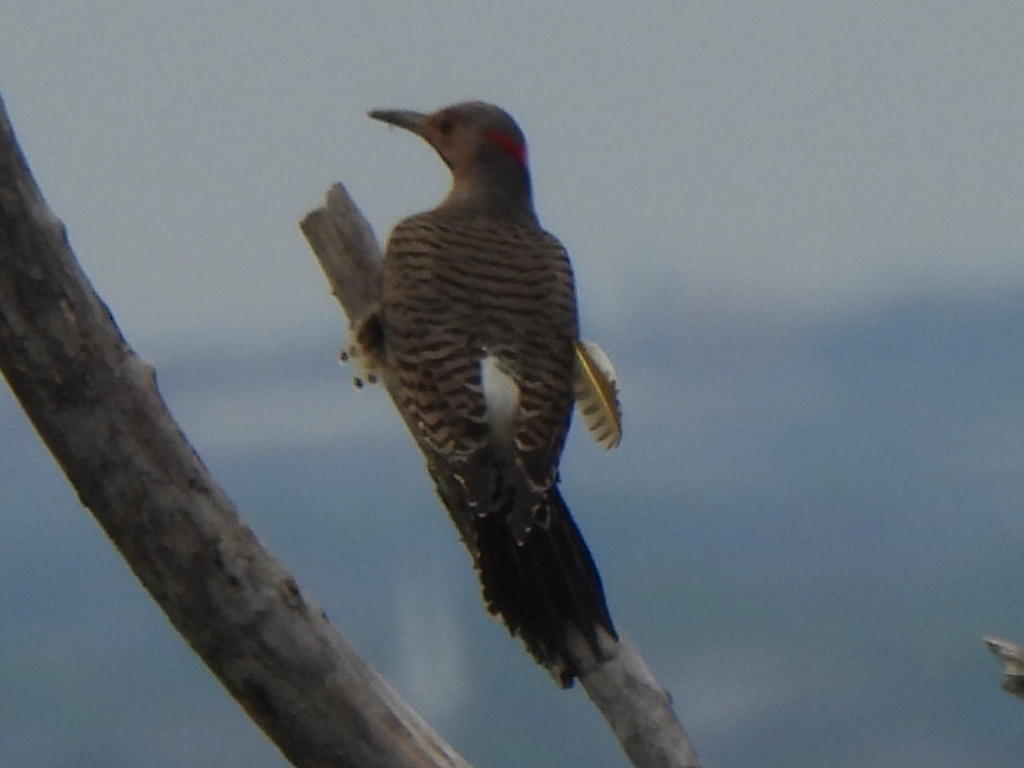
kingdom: Animalia
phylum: Chordata
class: Aves
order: Piciformes
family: Picidae
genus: Colaptes
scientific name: Colaptes auratus
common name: Northern flicker
